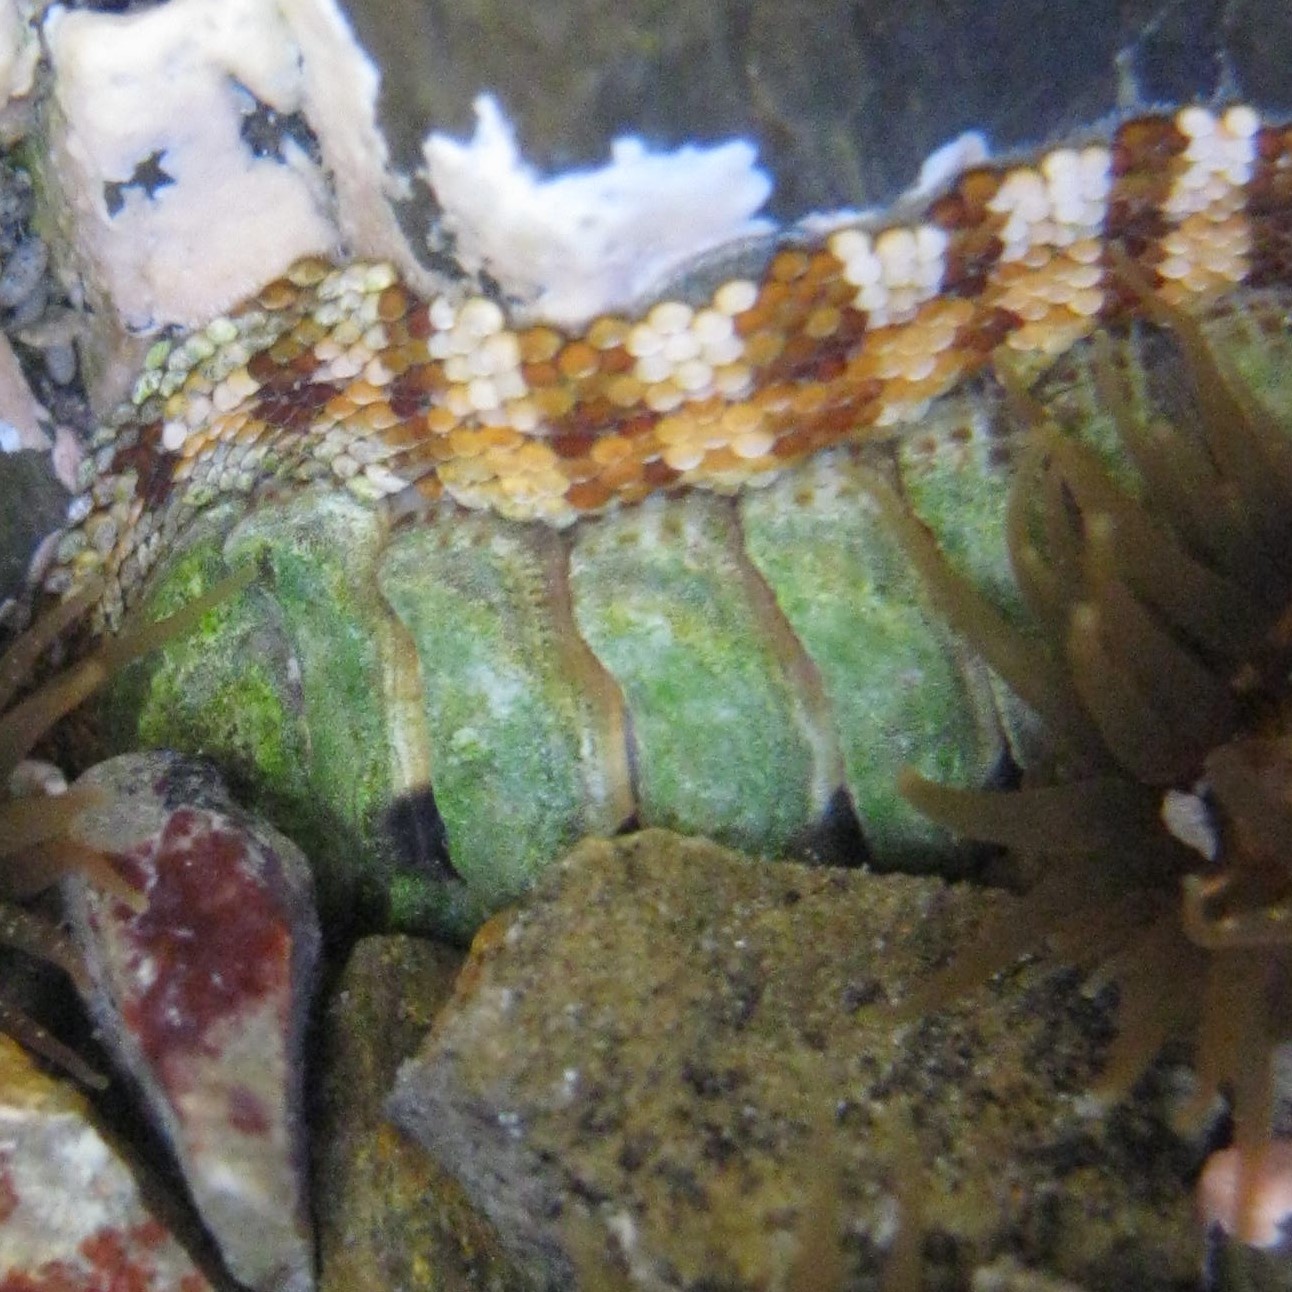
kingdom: Animalia
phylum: Mollusca
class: Polyplacophora
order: Chitonida
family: Chitonidae
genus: Sypharochiton
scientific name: Sypharochiton pelliserpentis
